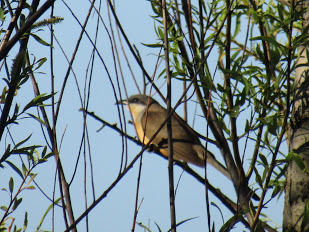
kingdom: Animalia
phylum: Chordata
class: Aves
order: Cuculiformes
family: Cuculidae
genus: Coccyzus
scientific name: Coccyzus melacoryphus
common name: Dark-billed cuckoo
